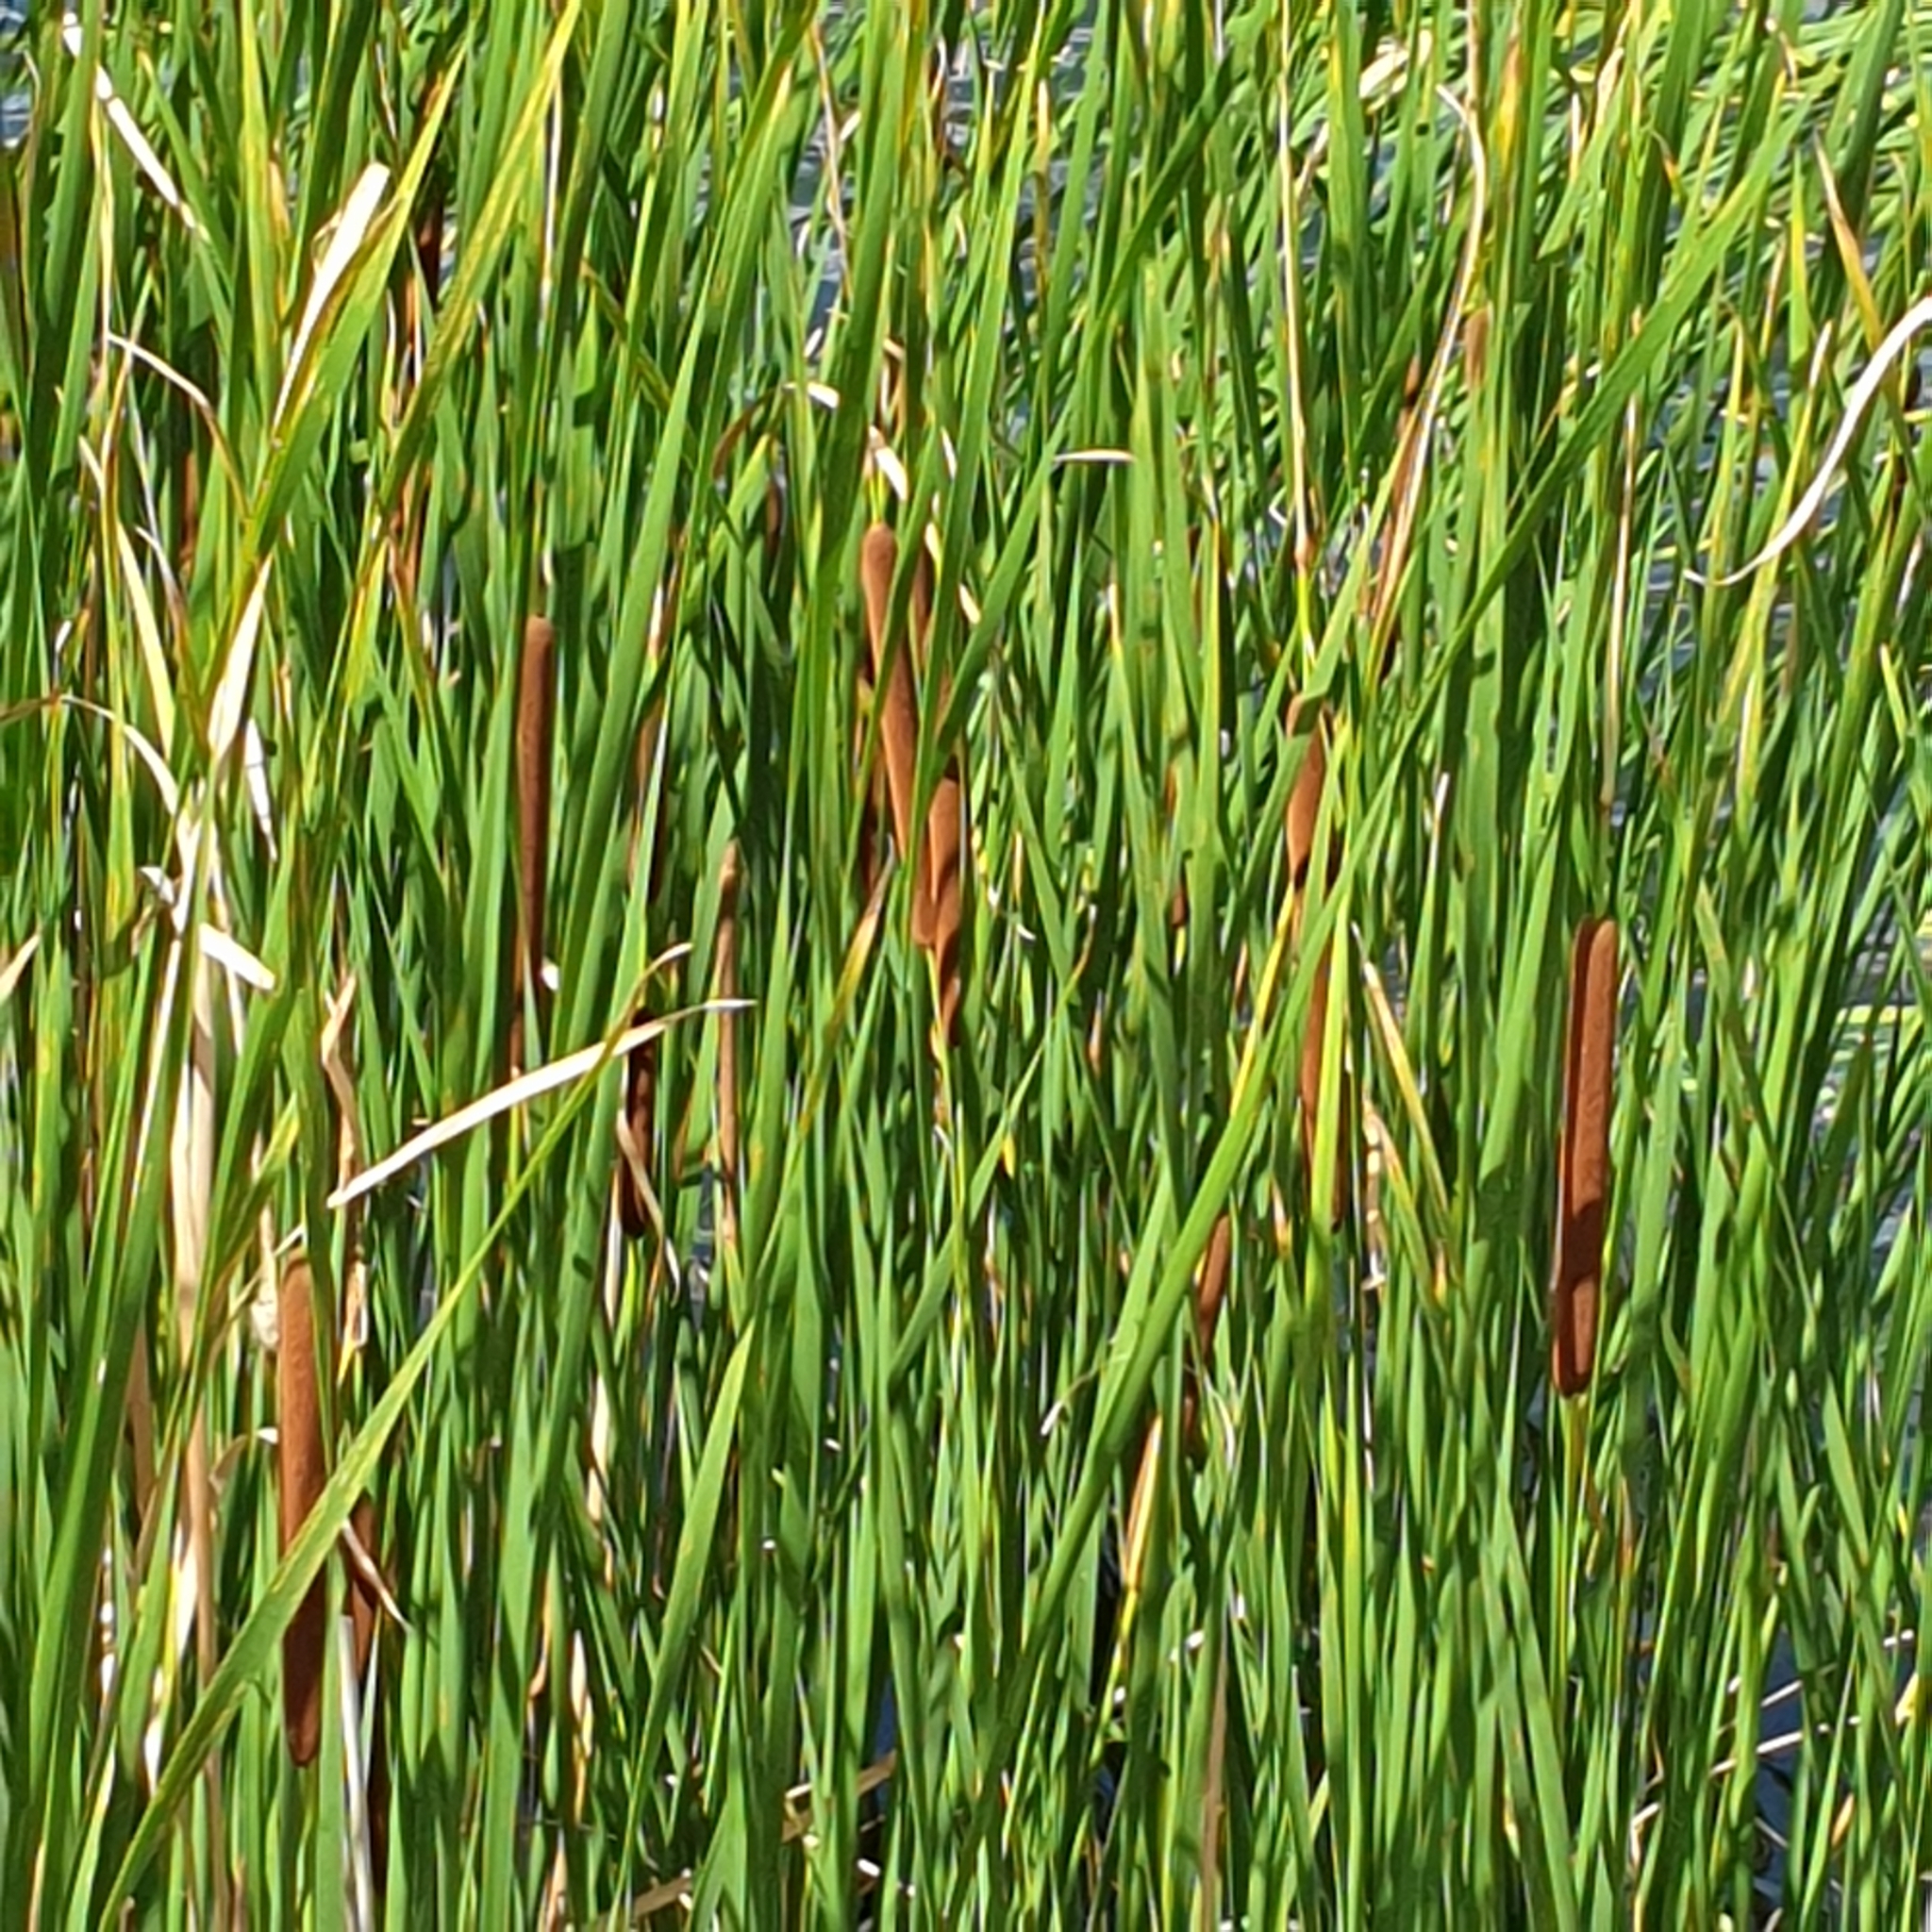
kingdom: Plantae
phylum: Tracheophyta
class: Liliopsida
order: Poales
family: Typhaceae
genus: Typha
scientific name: Typha angustifolia
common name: Lesser bulrush
